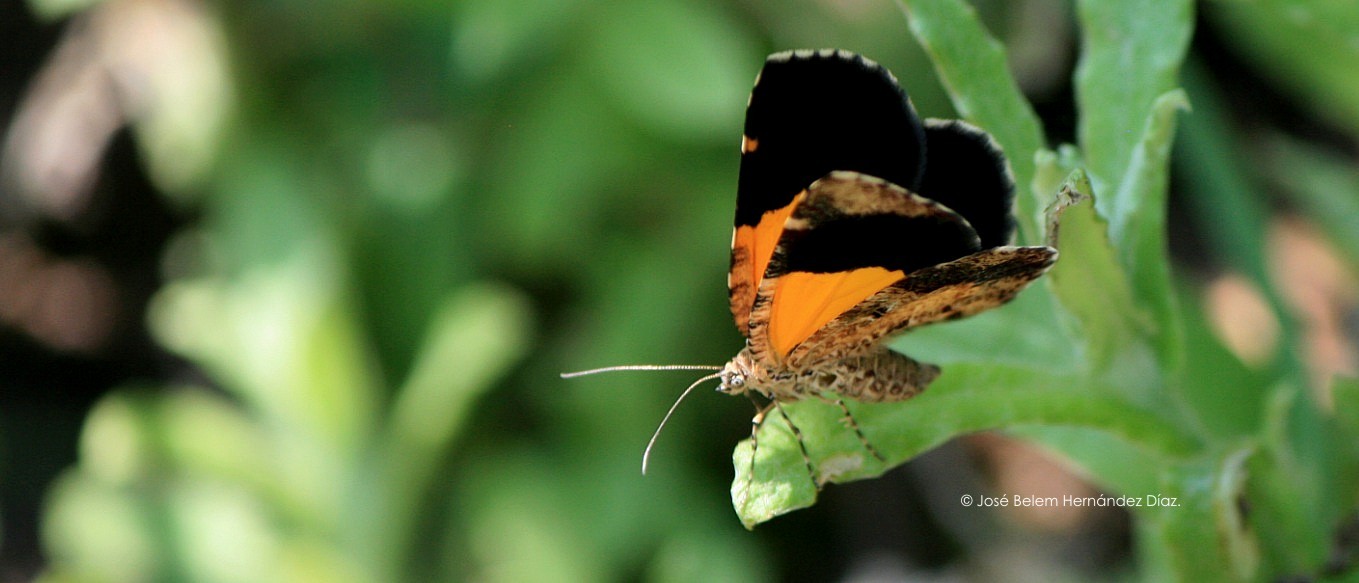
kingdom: Animalia
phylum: Arthropoda
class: Insecta
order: Lepidoptera
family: Geometridae
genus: Heterusia
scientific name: Heterusia atalantata
